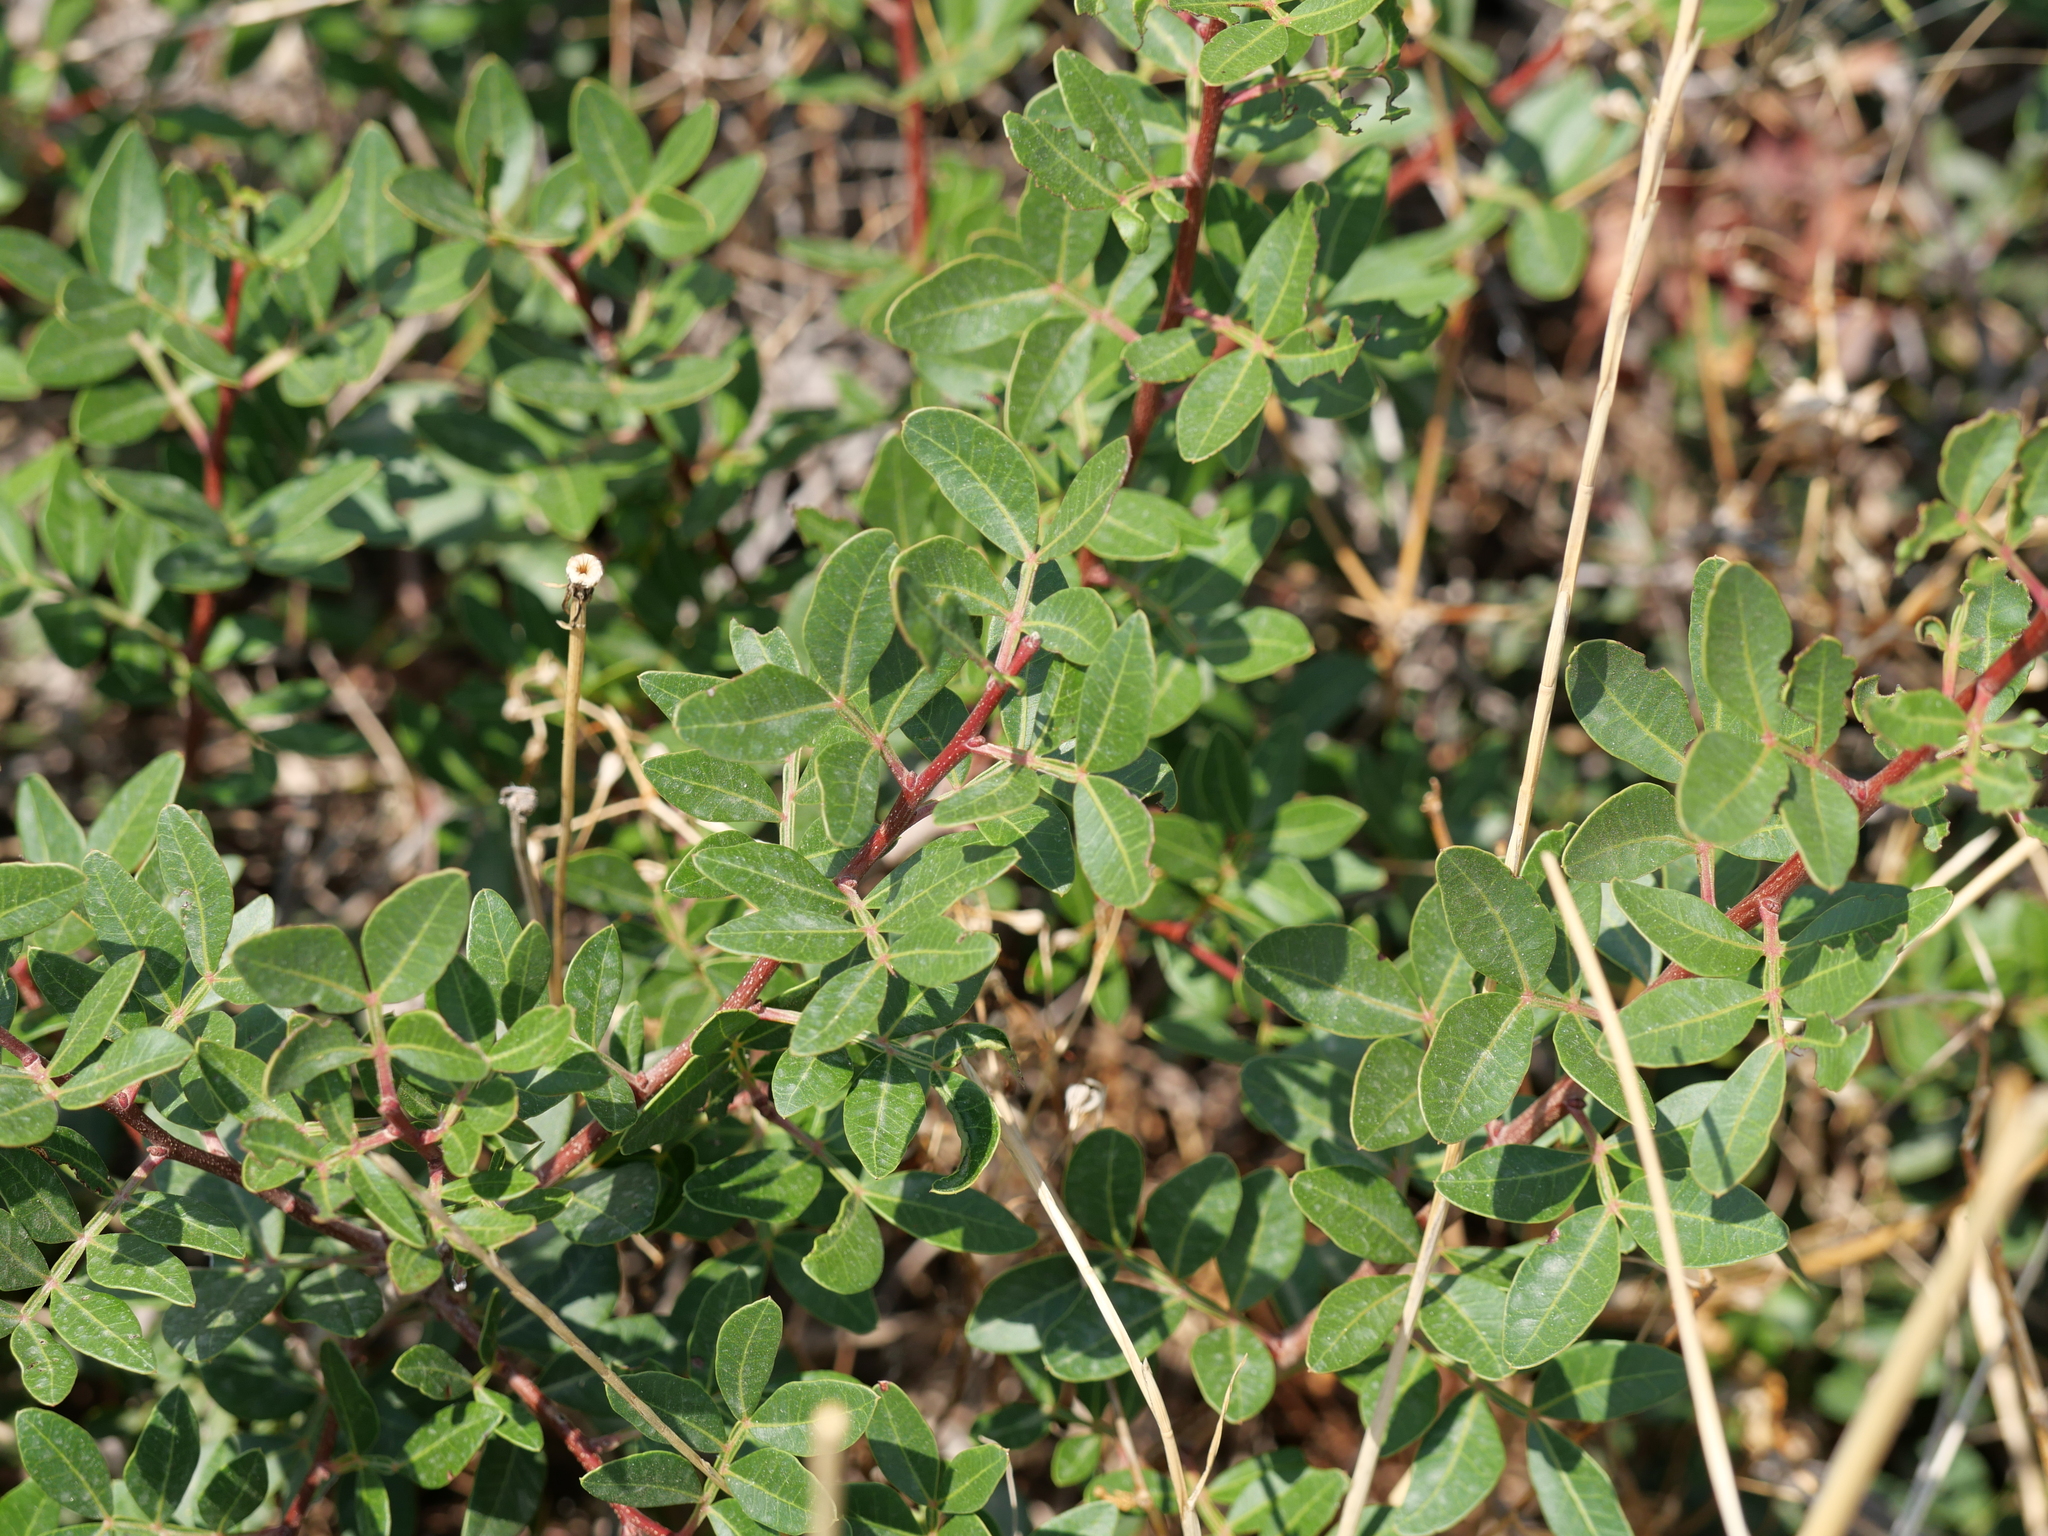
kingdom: Plantae
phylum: Tracheophyta
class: Magnoliopsida
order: Sapindales
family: Anacardiaceae
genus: Pistacia
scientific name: Pistacia lentiscus
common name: Lentisk
